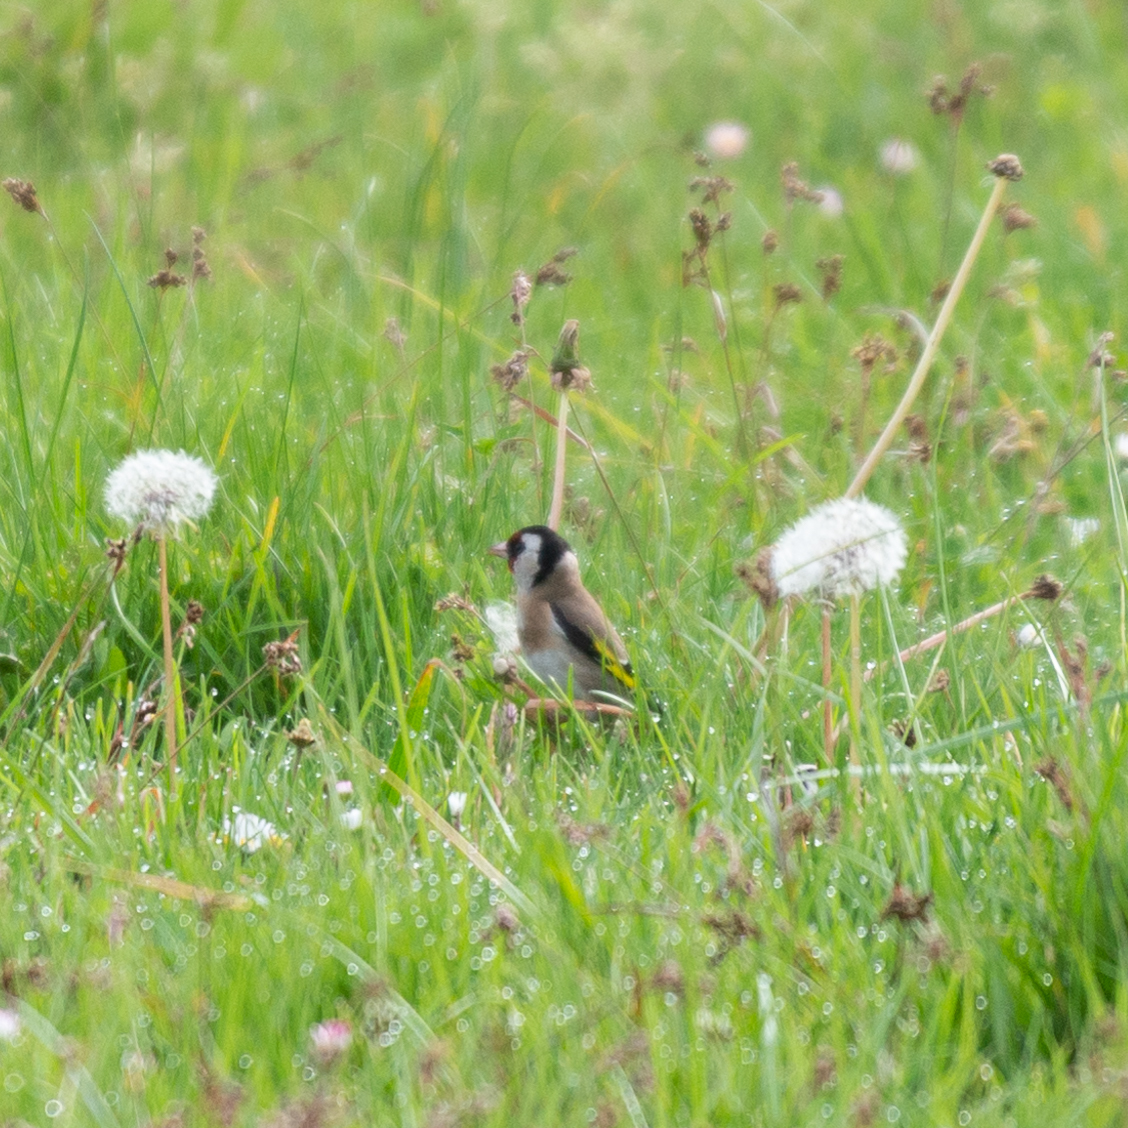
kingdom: Animalia
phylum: Chordata
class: Aves
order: Passeriformes
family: Fringillidae
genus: Carduelis
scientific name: Carduelis carduelis
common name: European goldfinch
